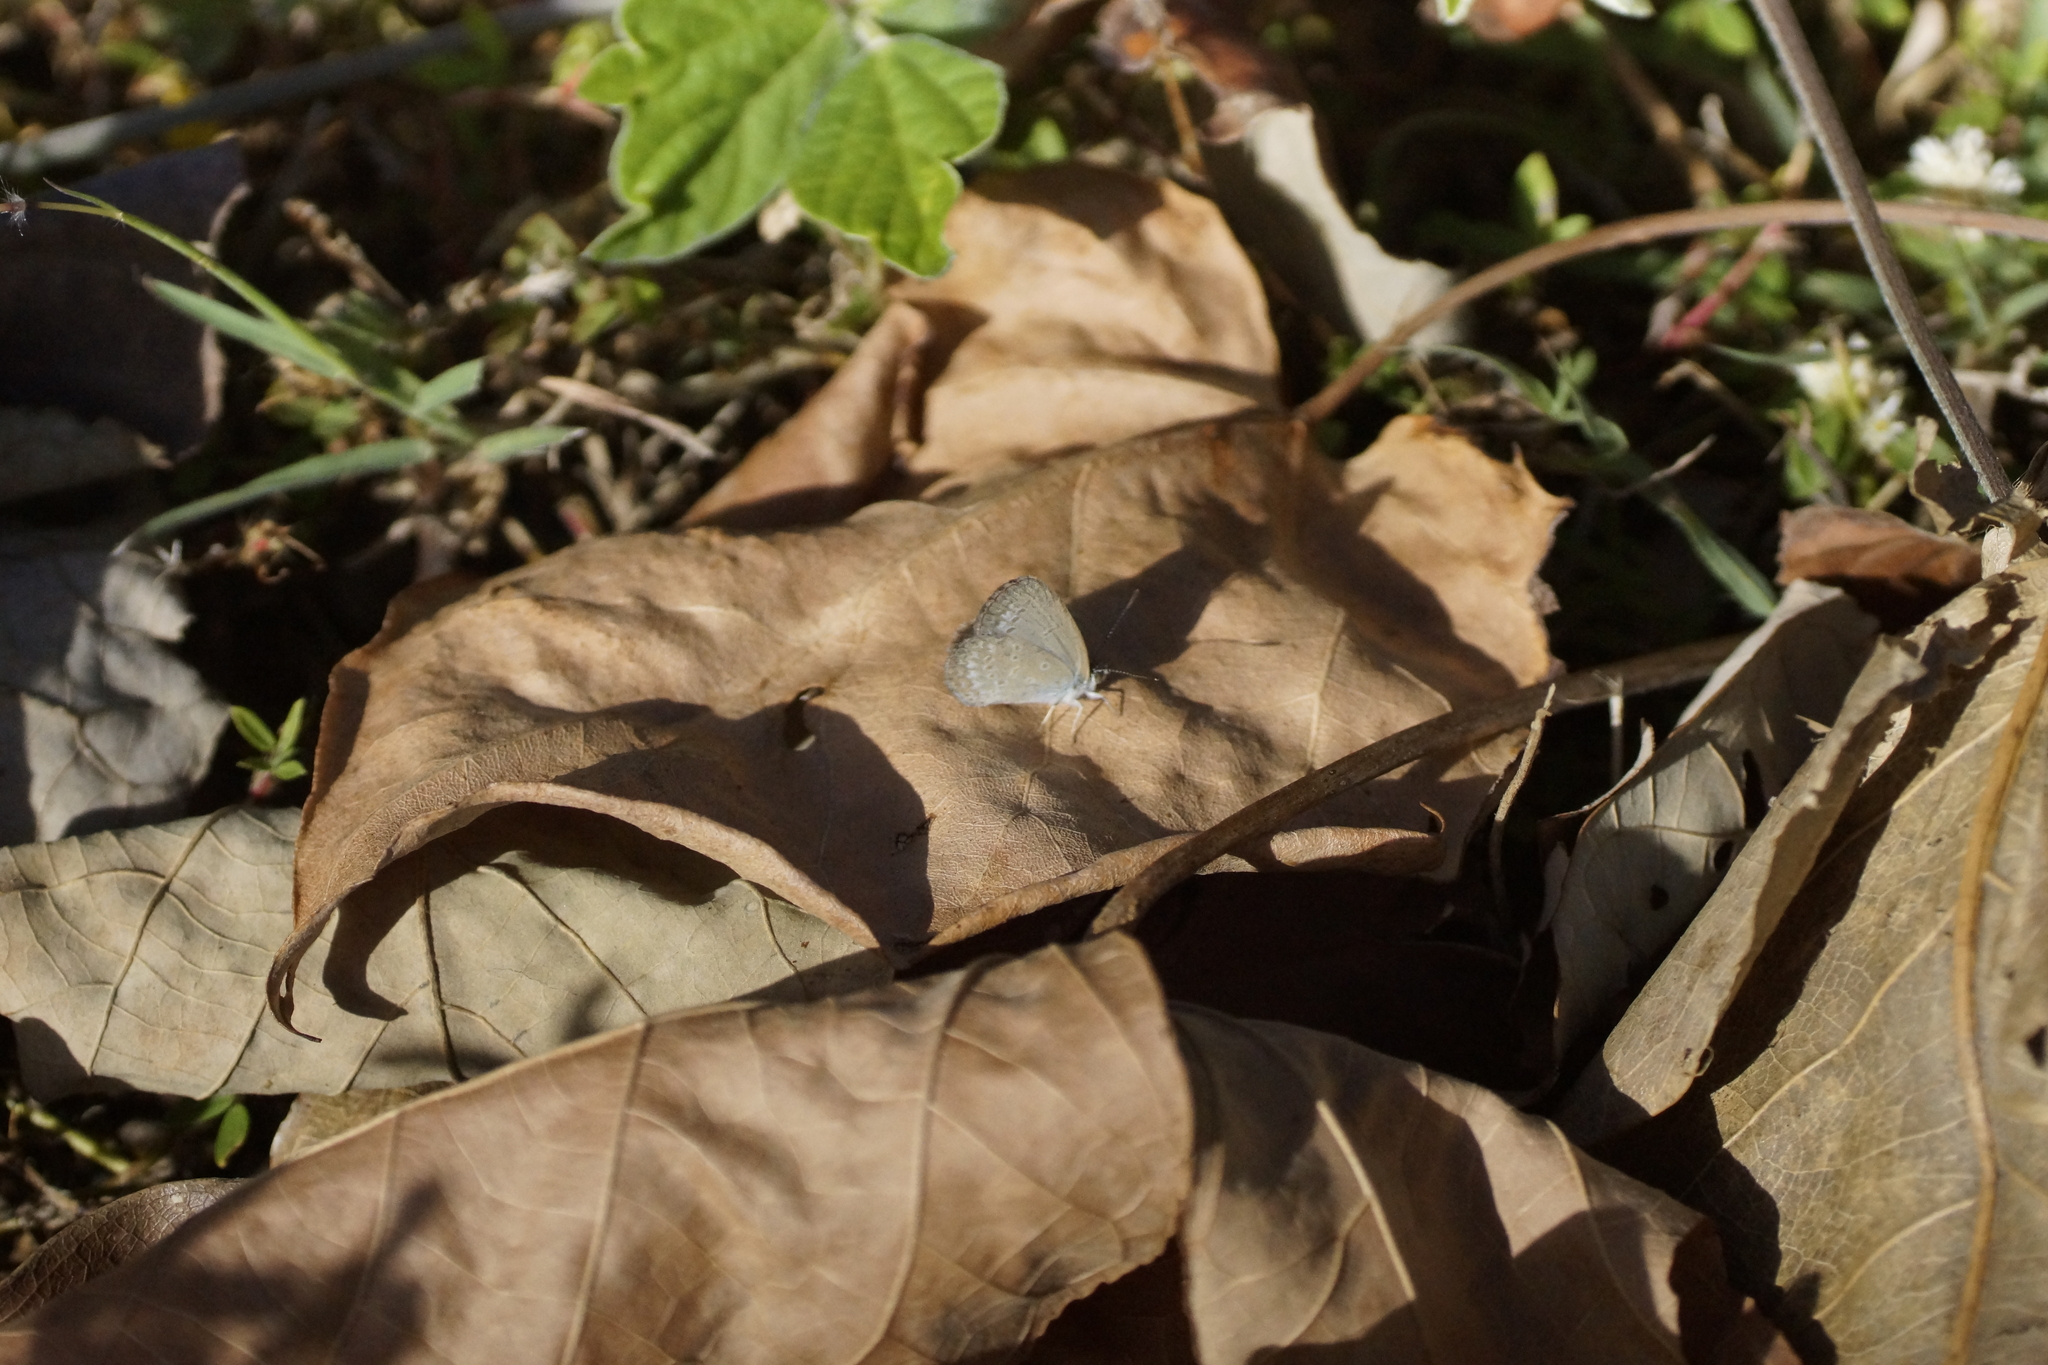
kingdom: Animalia
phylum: Arthropoda
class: Insecta
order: Lepidoptera
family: Lycaenidae
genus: Zizina
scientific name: Zizina otis
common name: Lesser grass blue
